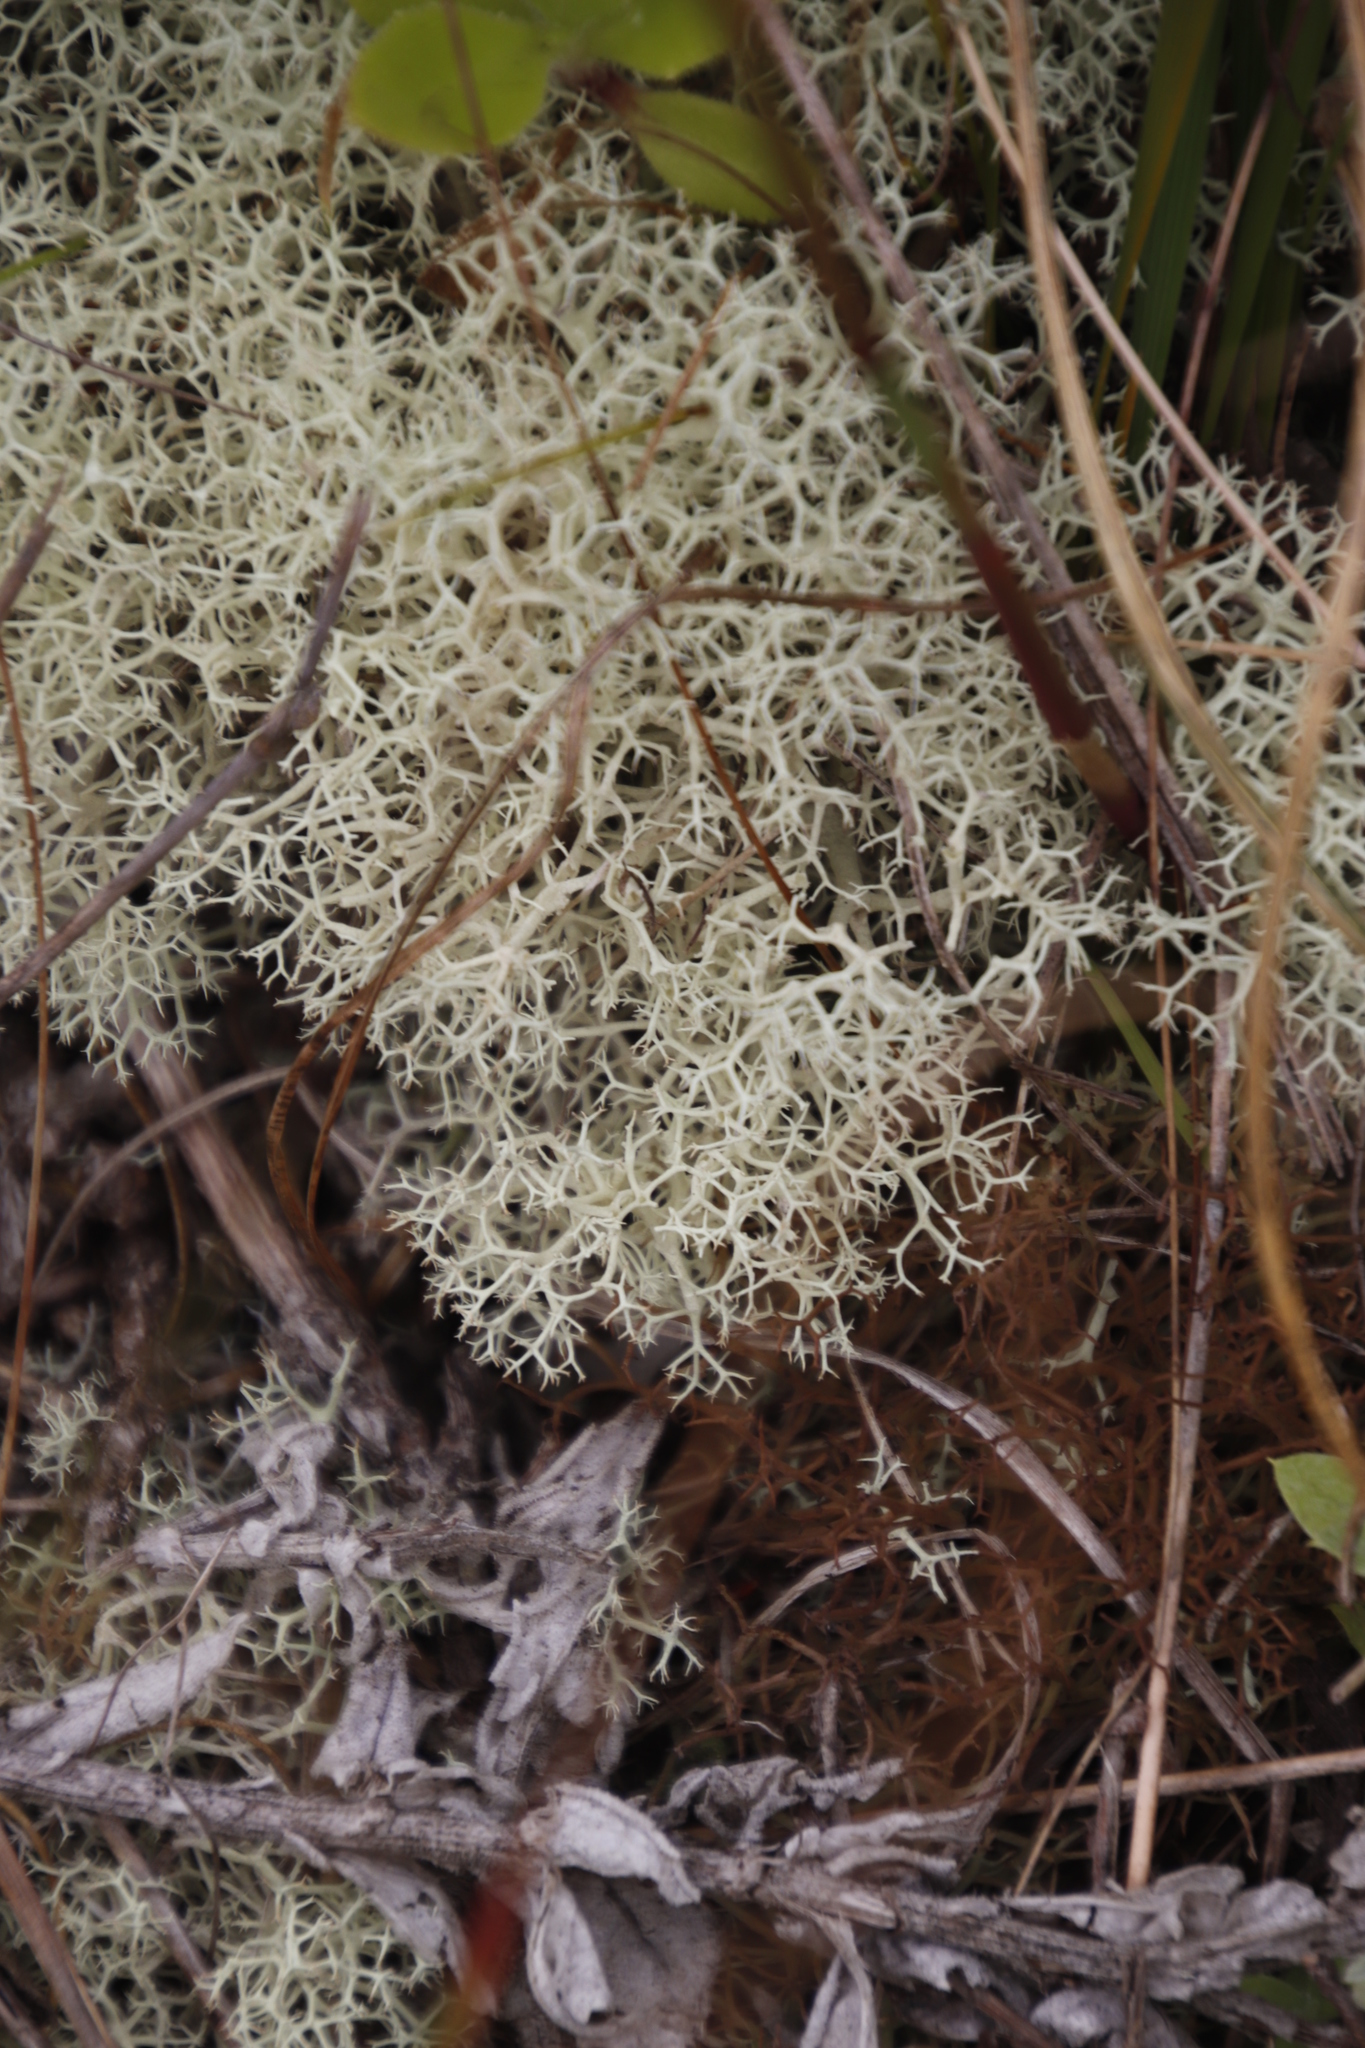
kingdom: Fungi
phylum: Ascomycota
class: Lecanoromycetes
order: Lecanorales
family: Cladoniaceae
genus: Cladonia
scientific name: Cladonia confusa
